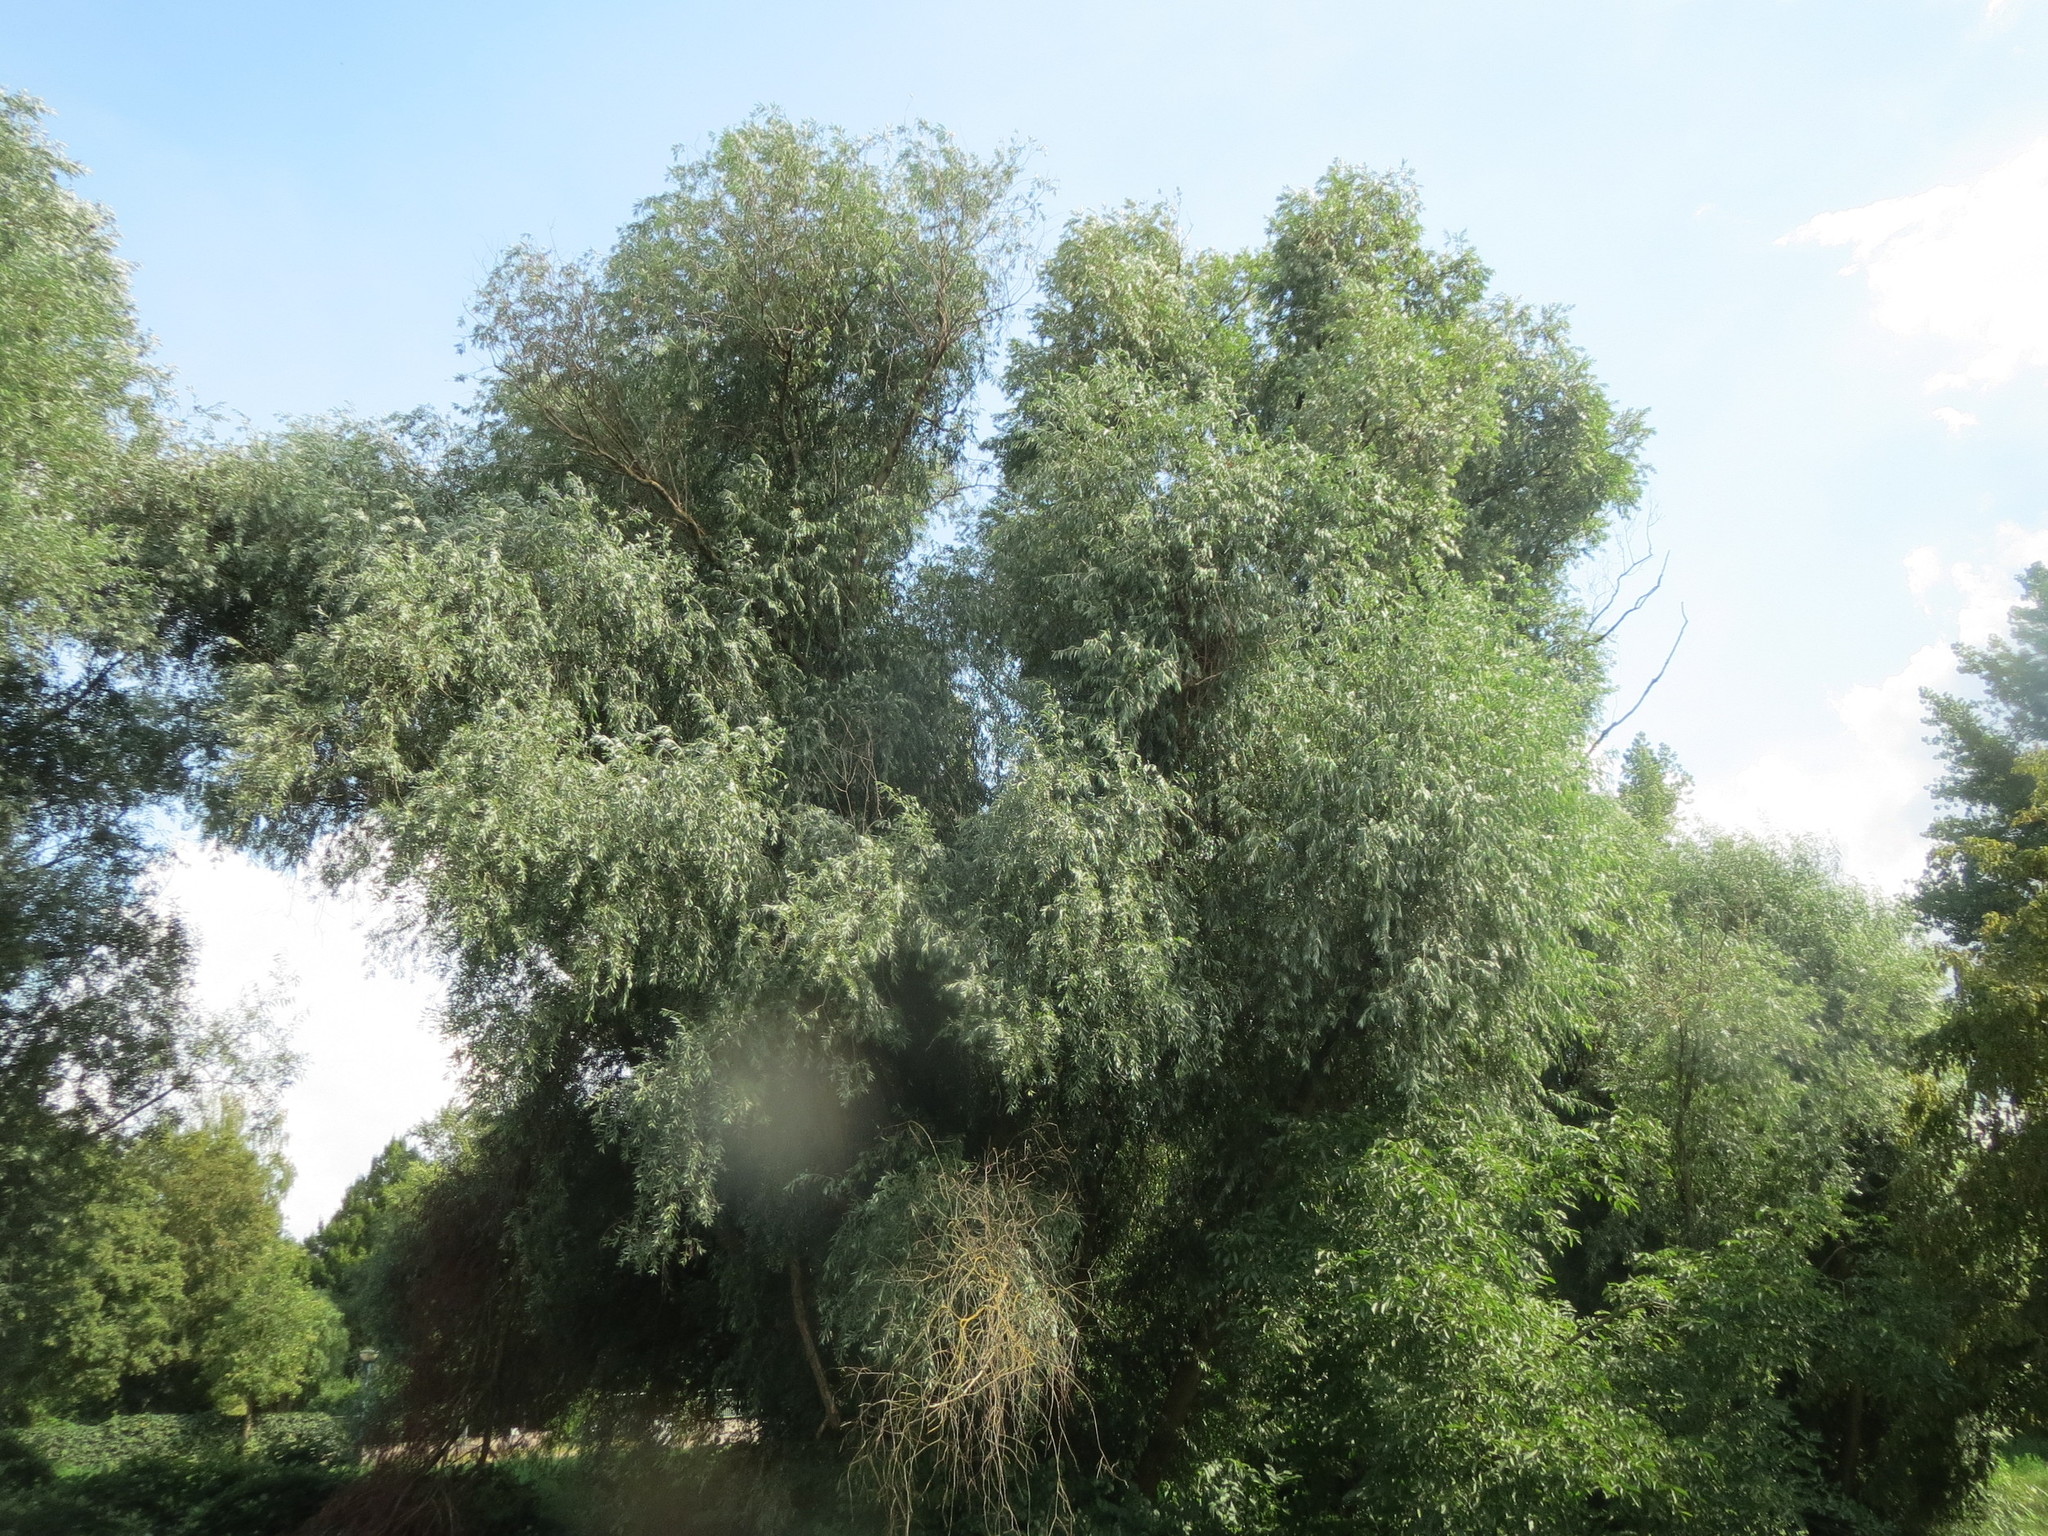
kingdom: Plantae
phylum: Tracheophyta
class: Magnoliopsida
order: Malpighiales
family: Salicaceae
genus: Salix
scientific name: Salix alba
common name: White willow
